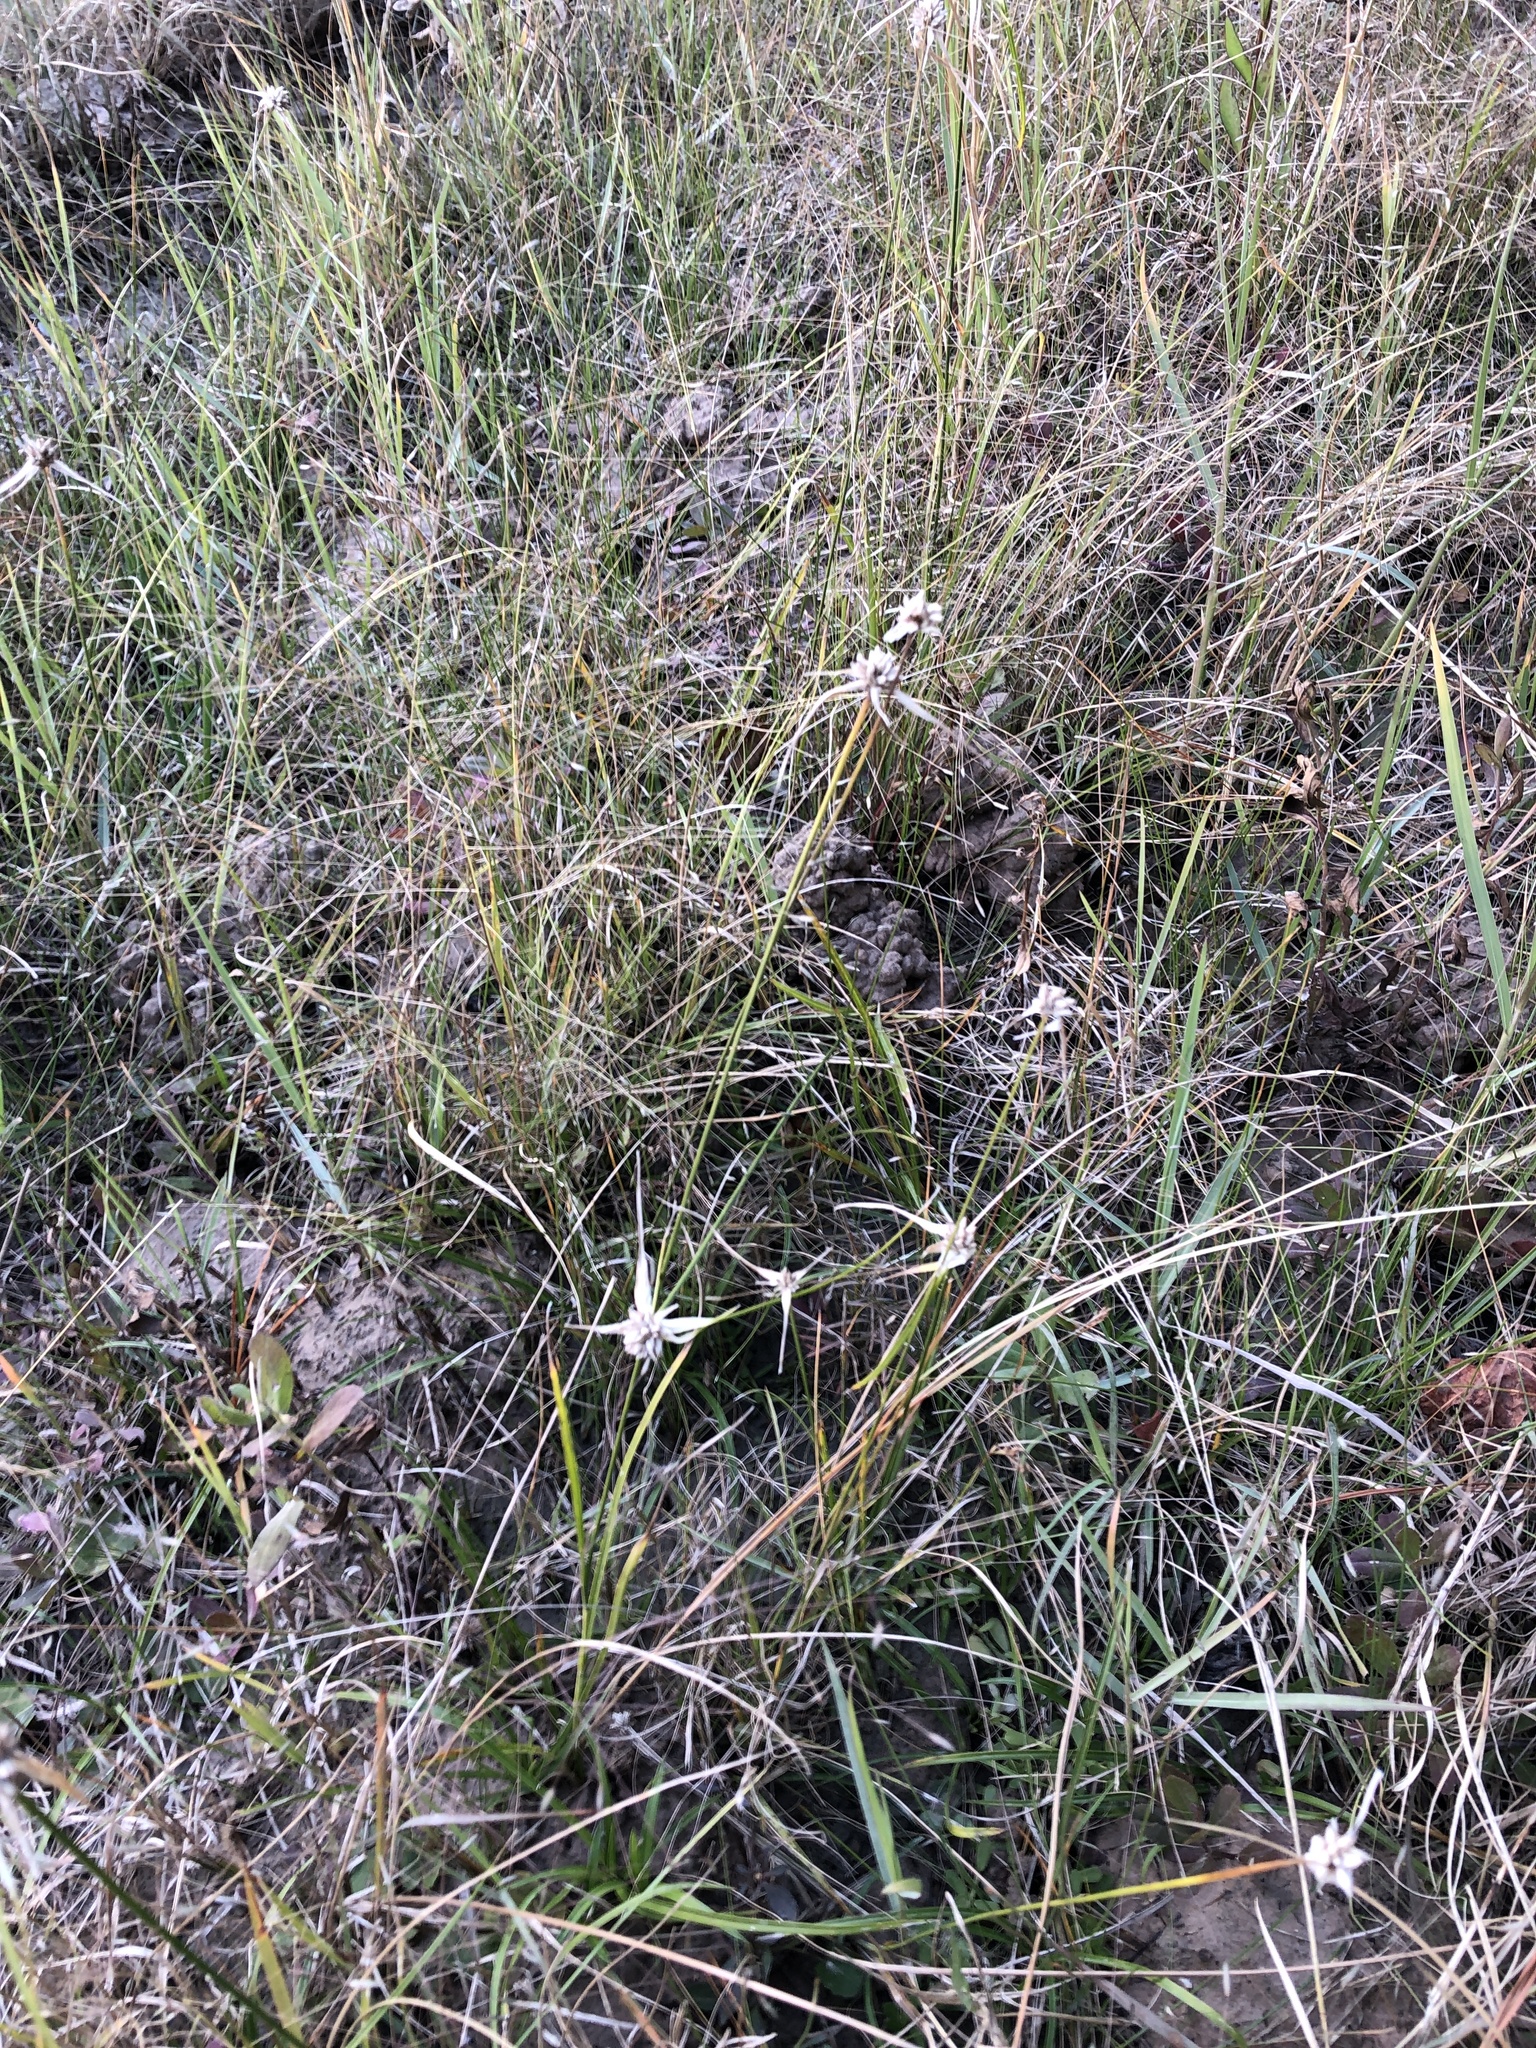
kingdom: Plantae
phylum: Tracheophyta
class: Liliopsida
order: Poales
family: Cyperaceae
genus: Rhynchospora
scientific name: Rhynchospora colorata
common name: Star sedge
